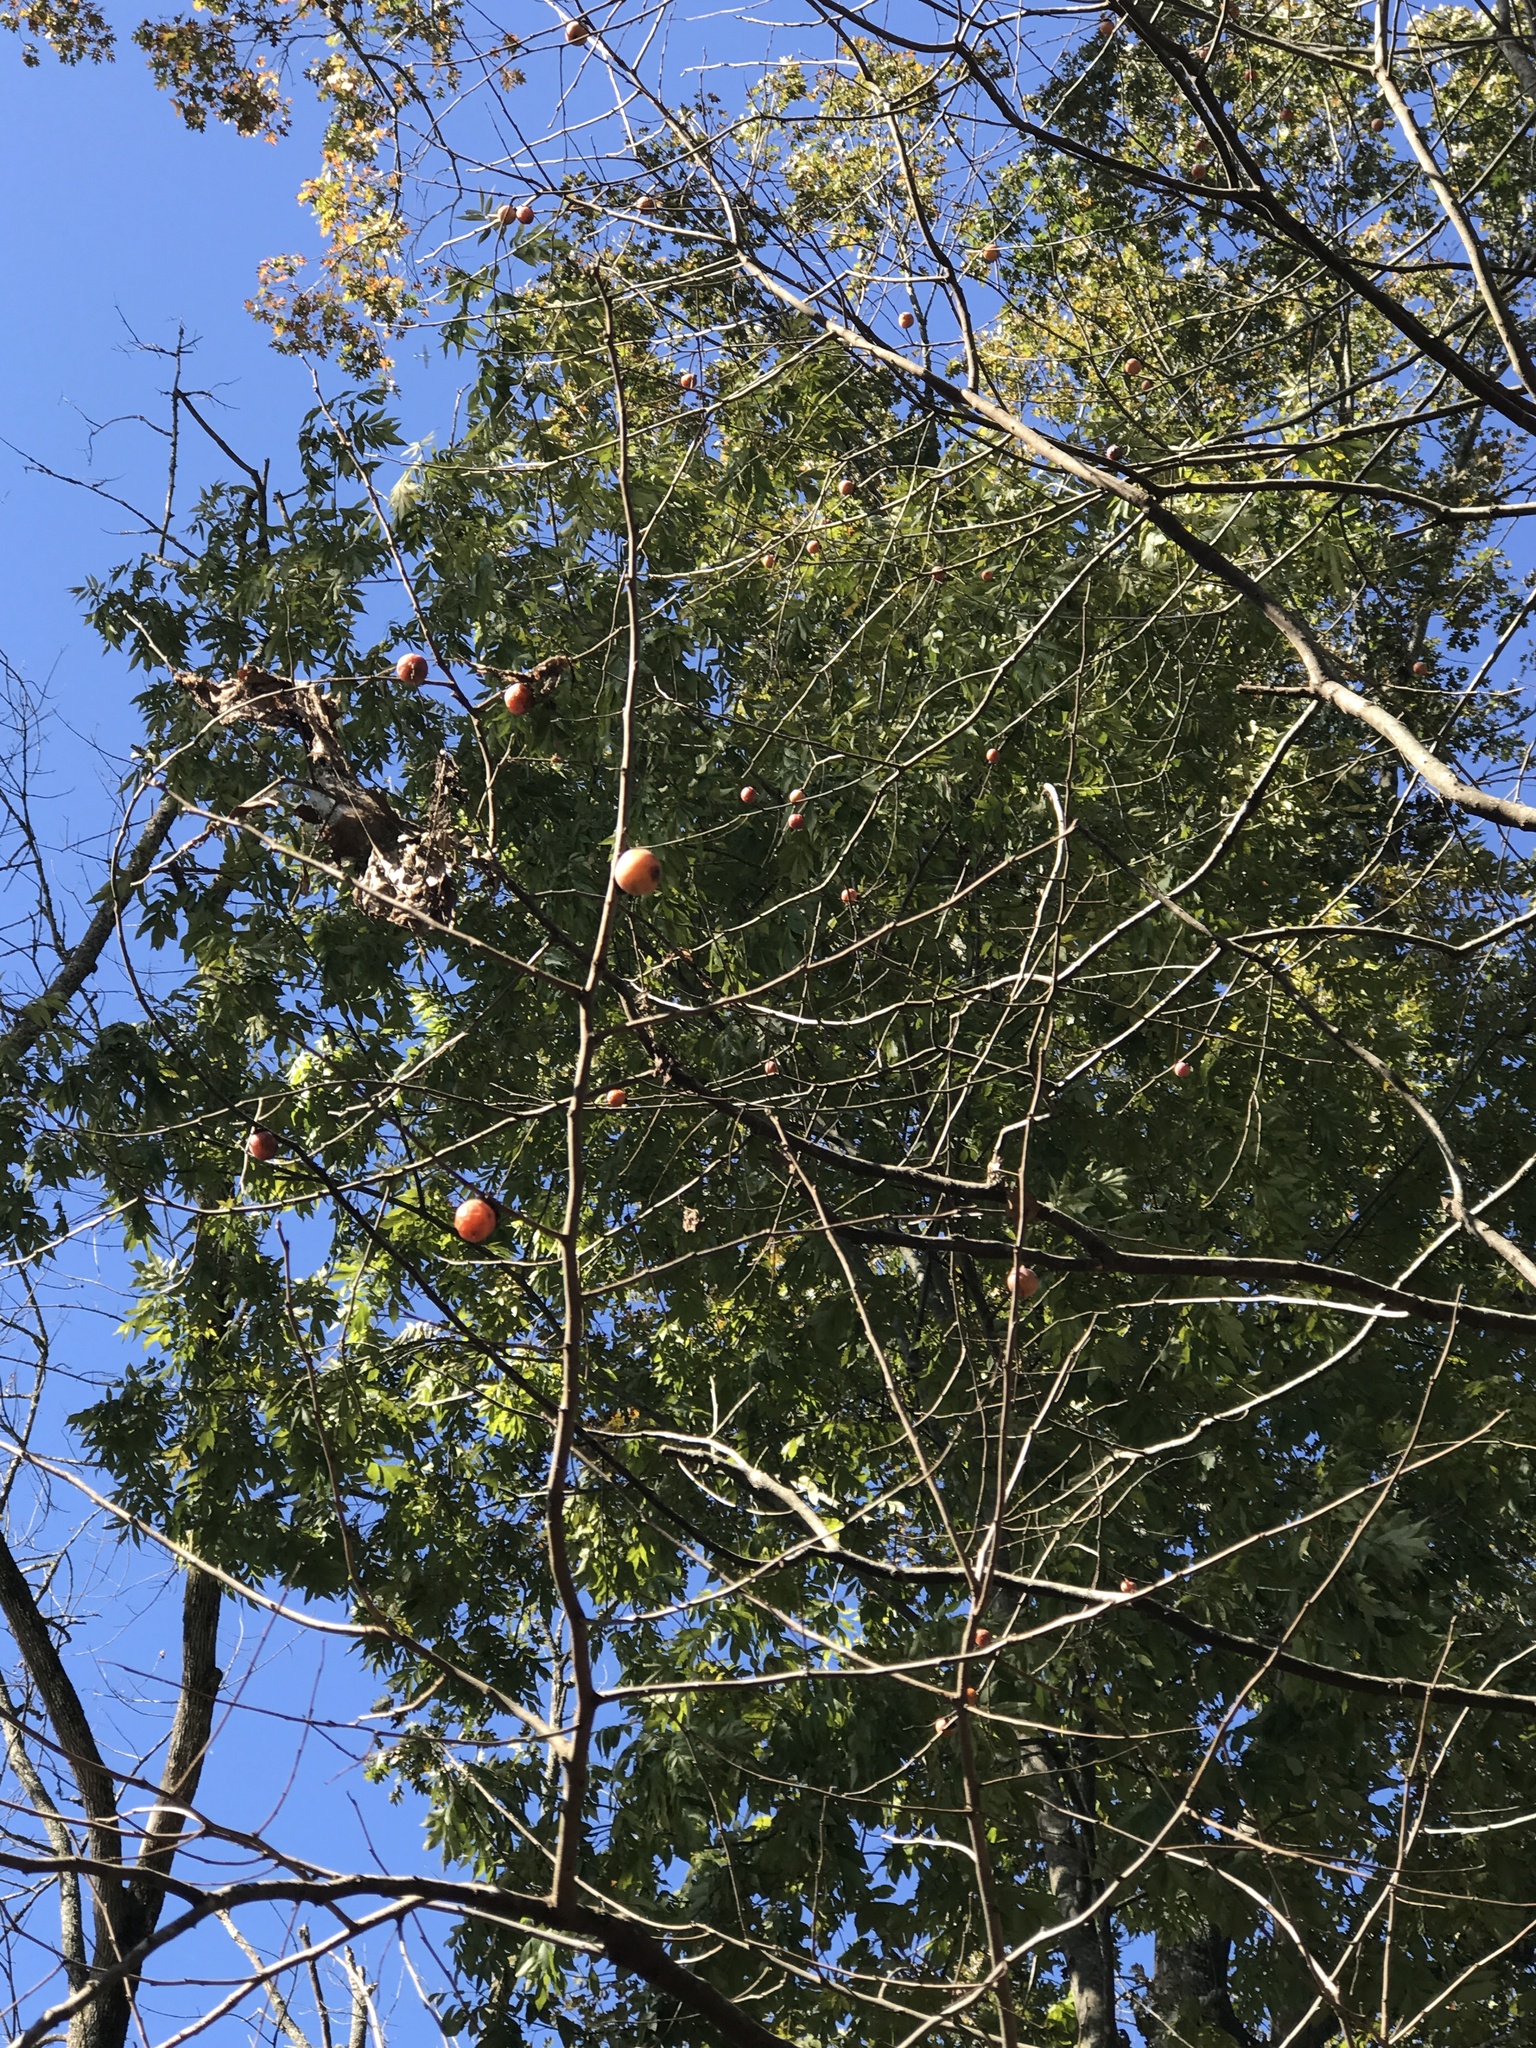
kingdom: Plantae
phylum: Tracheophyta
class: Magnoliopsida
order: Ericales
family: Ebenaceae
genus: Diospyros
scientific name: Diospyros virginiana
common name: Persimmon
